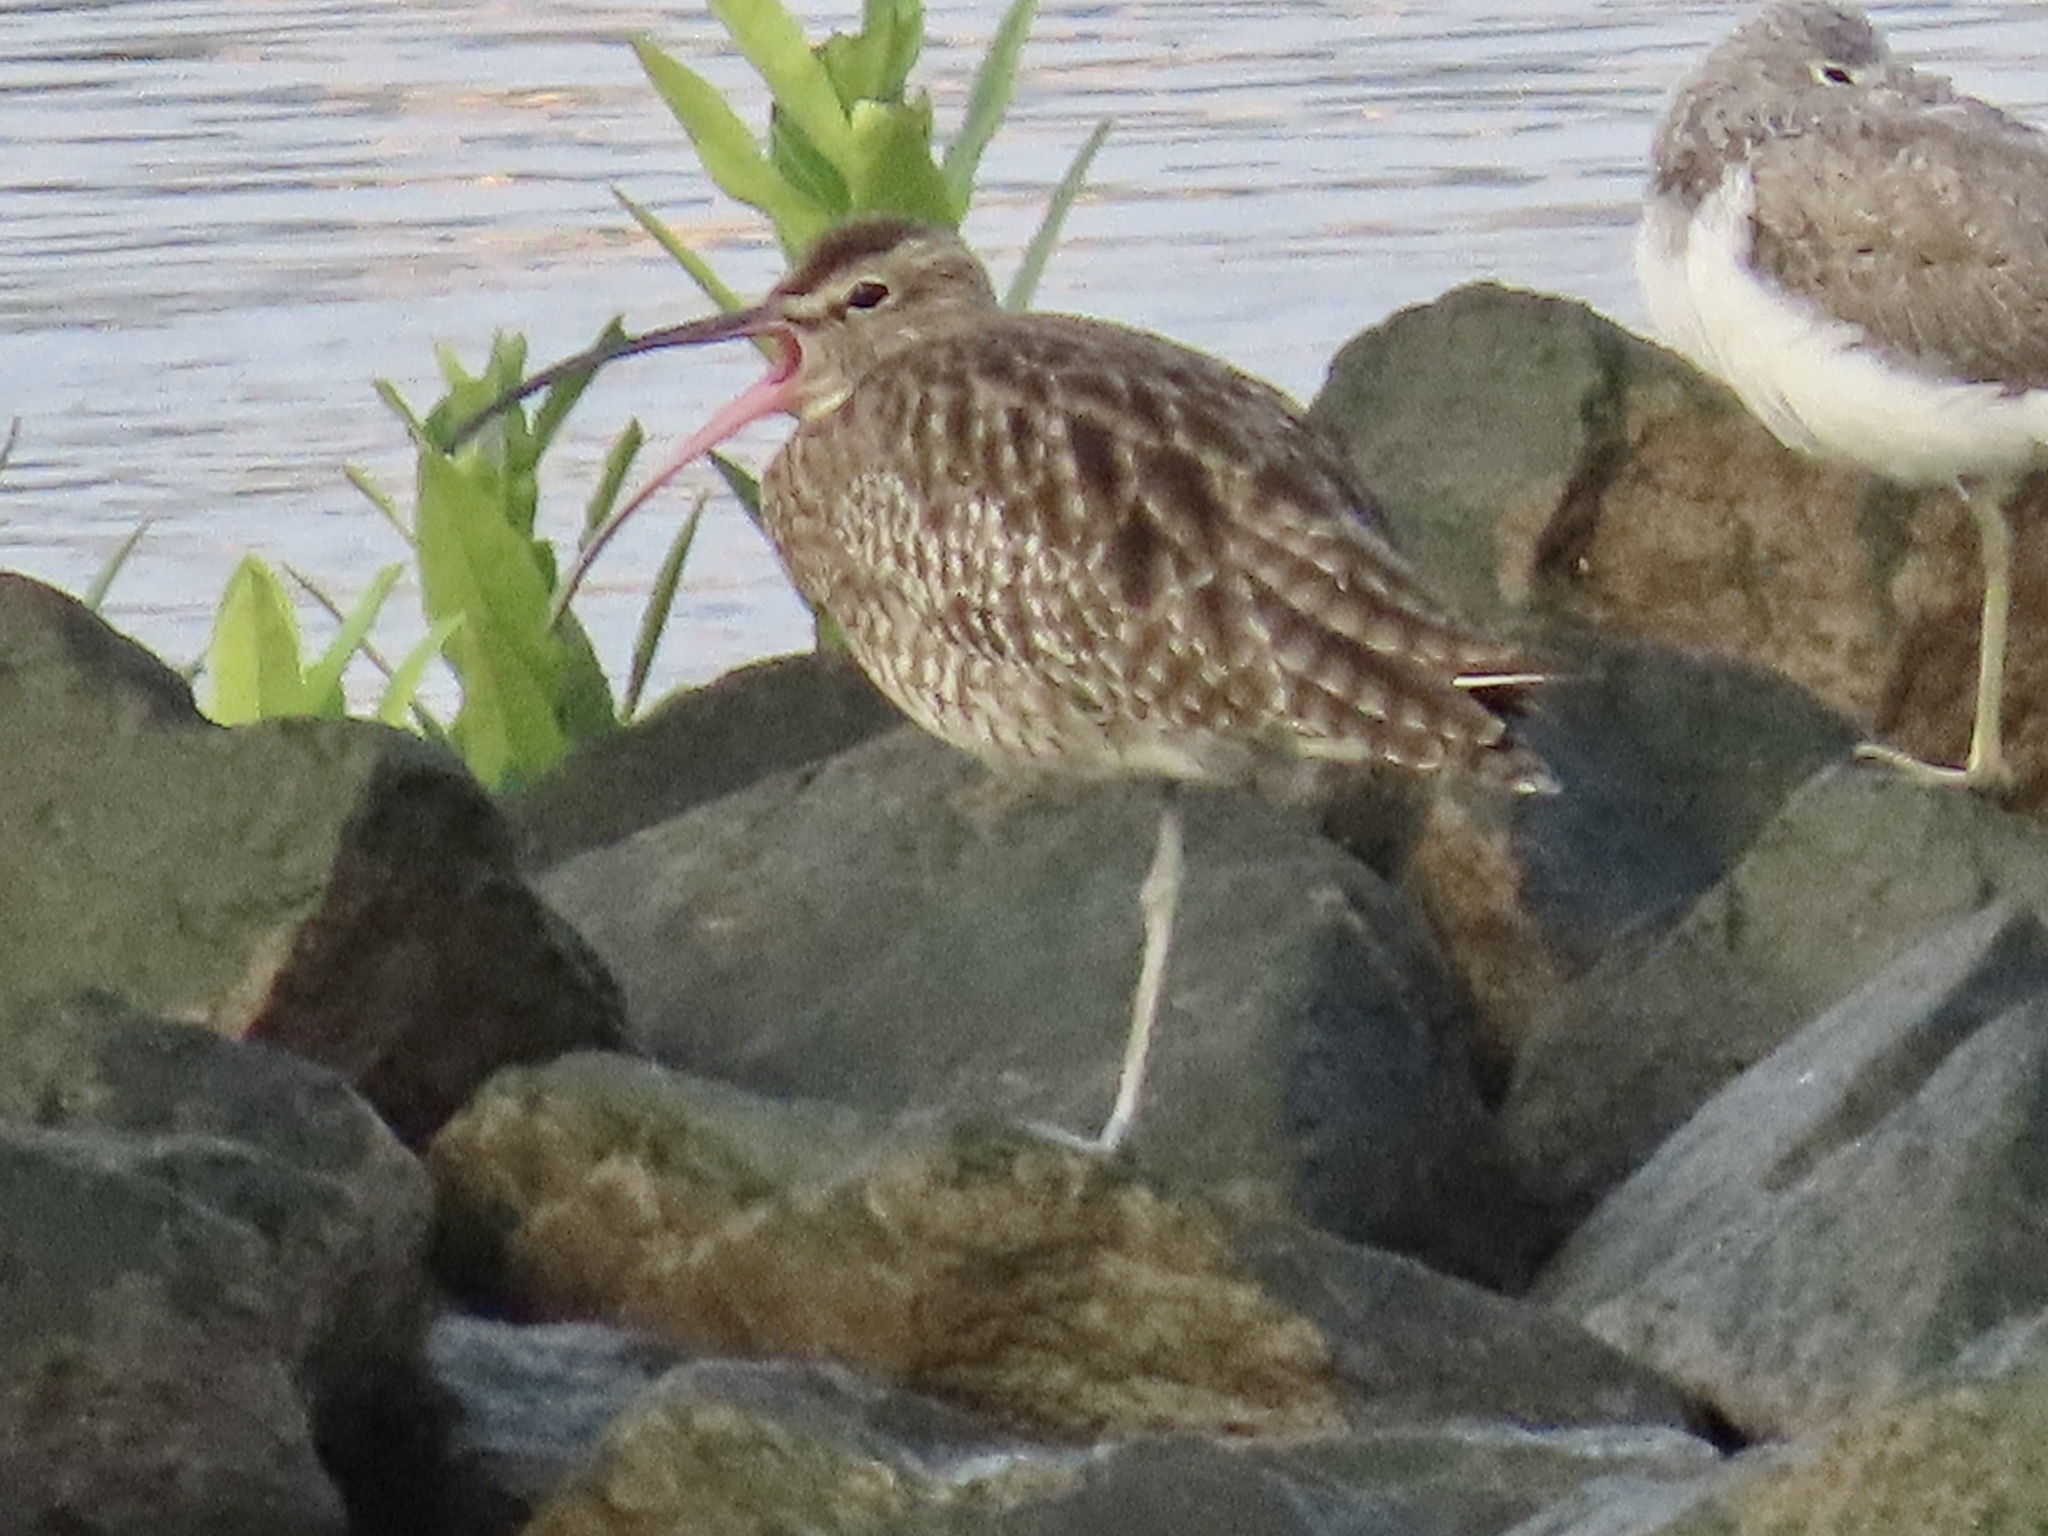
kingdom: Animalia
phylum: Chordata
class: Aves
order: Charadriiformes
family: Scolopacidae
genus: Numenius
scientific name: Numenius phaeopus
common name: Whimbrel
